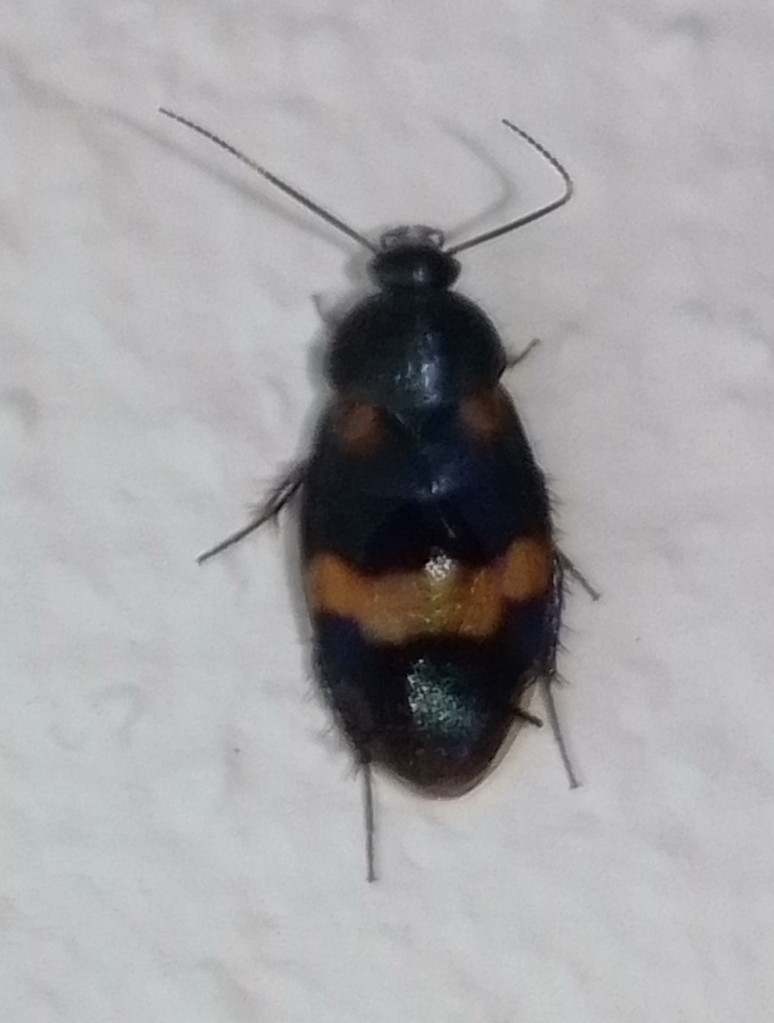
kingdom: Animalia
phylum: Arthropoda
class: Insecta
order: Blattodea
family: Corydiidae
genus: Holocompsa
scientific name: Holocompsa azteca
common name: Aztec hairy cockroach
